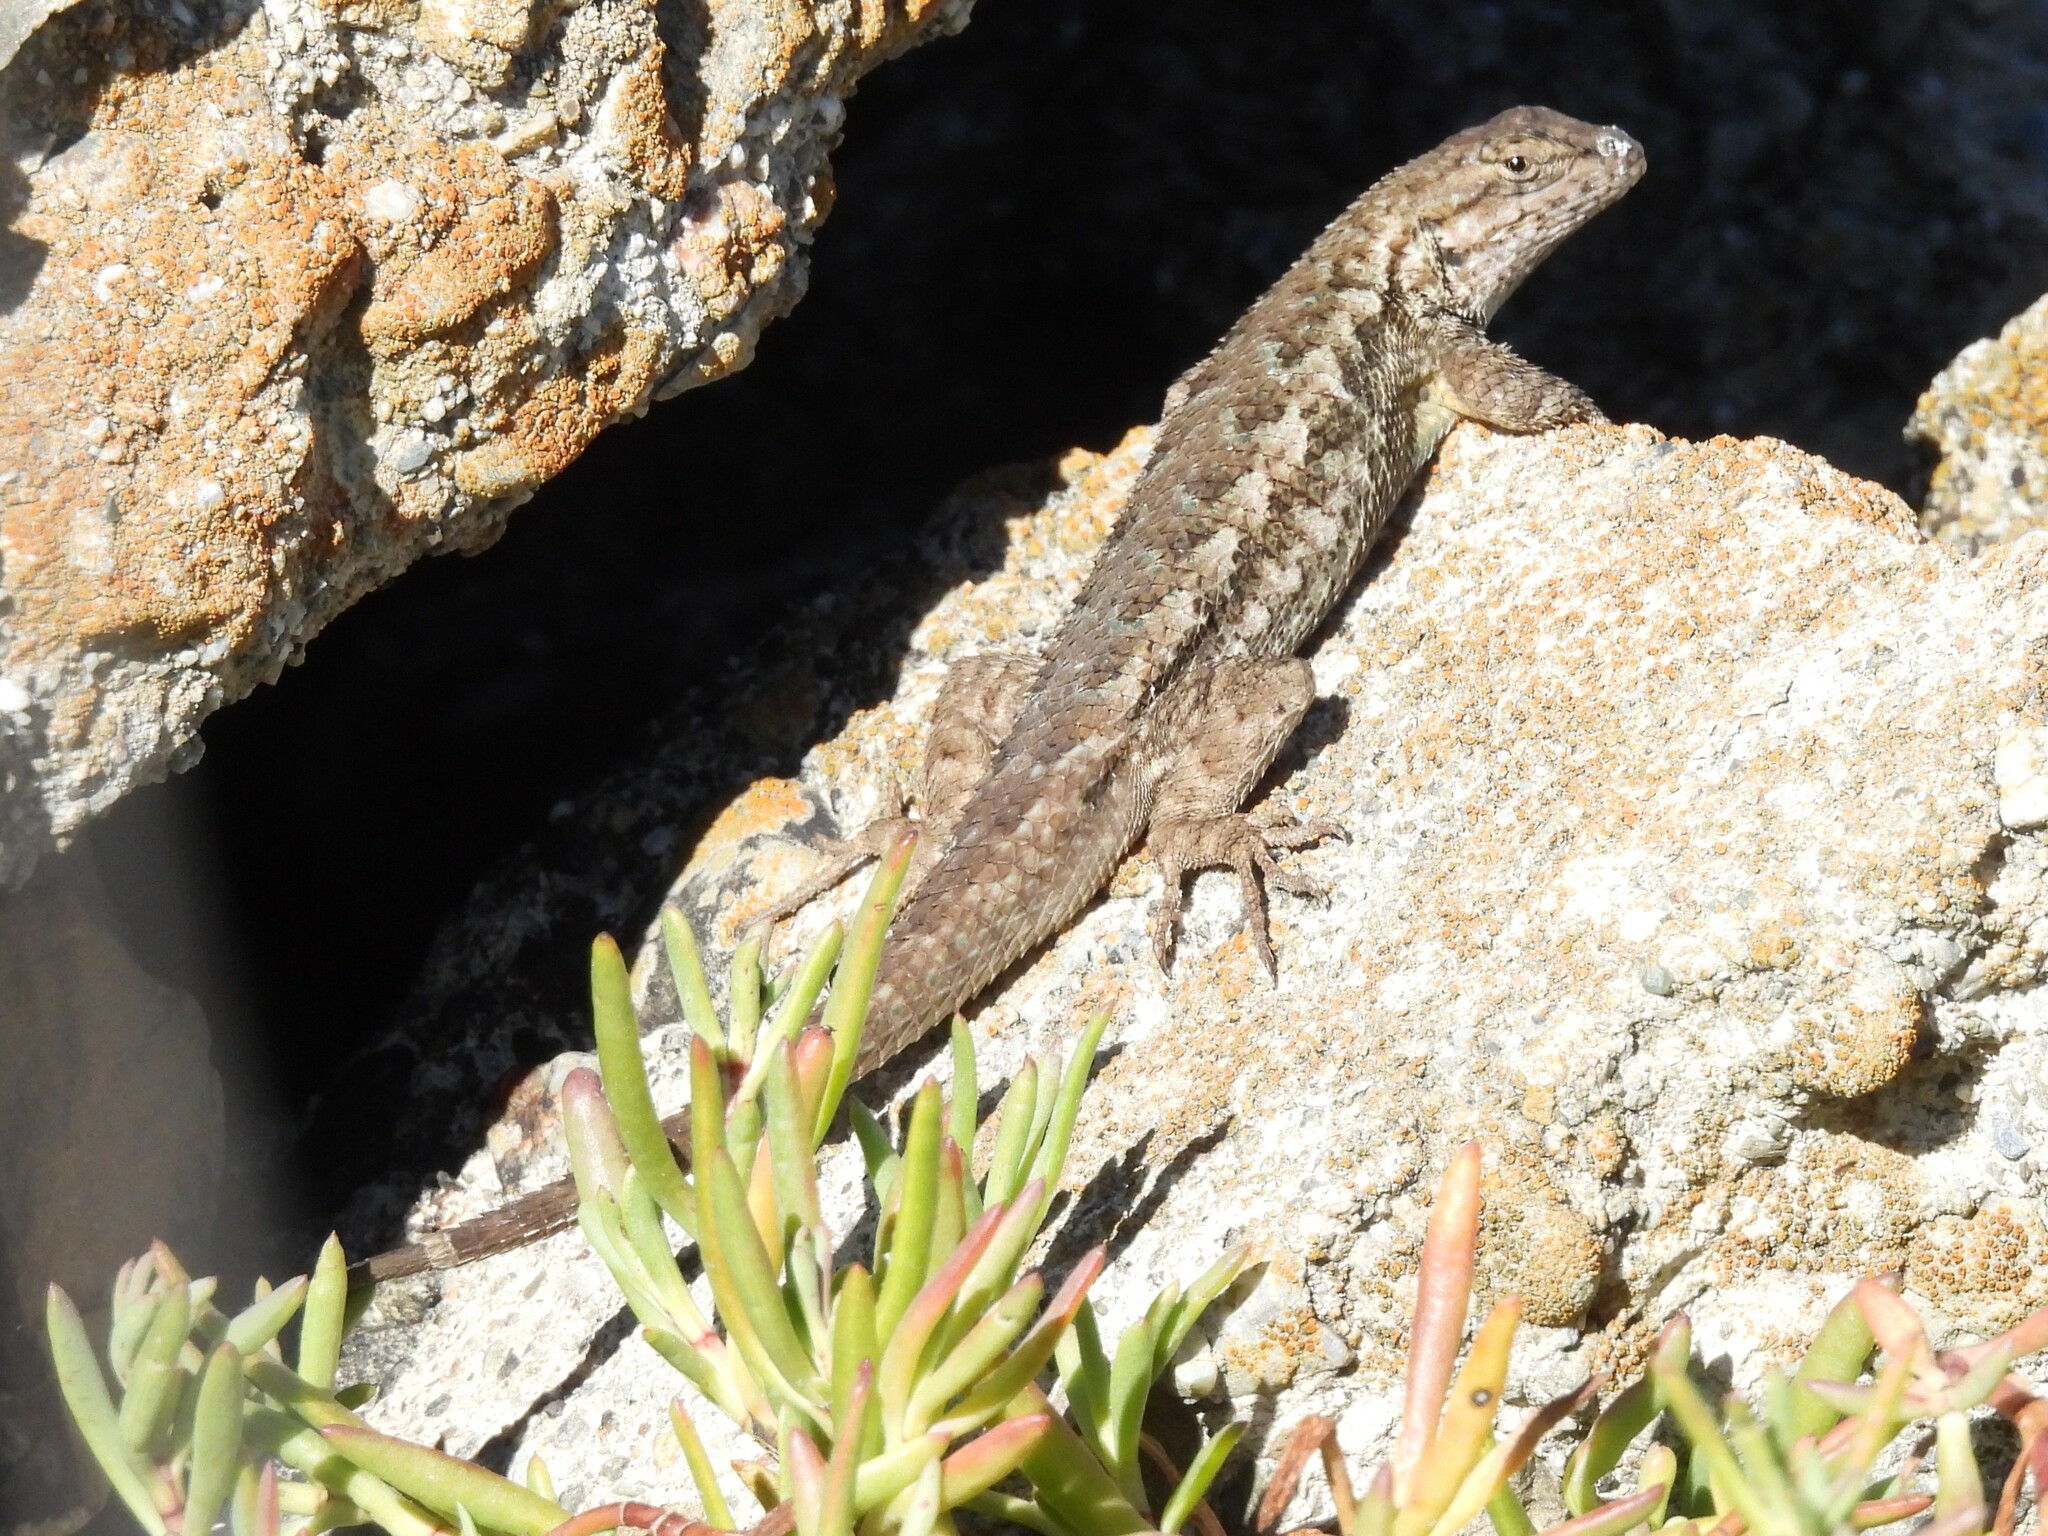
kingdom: Animalia
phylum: Chordata
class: Squamata
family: Phrynosomatidae
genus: Sceloporus
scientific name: Sceloporus occidentalis
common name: Western fence lizard
